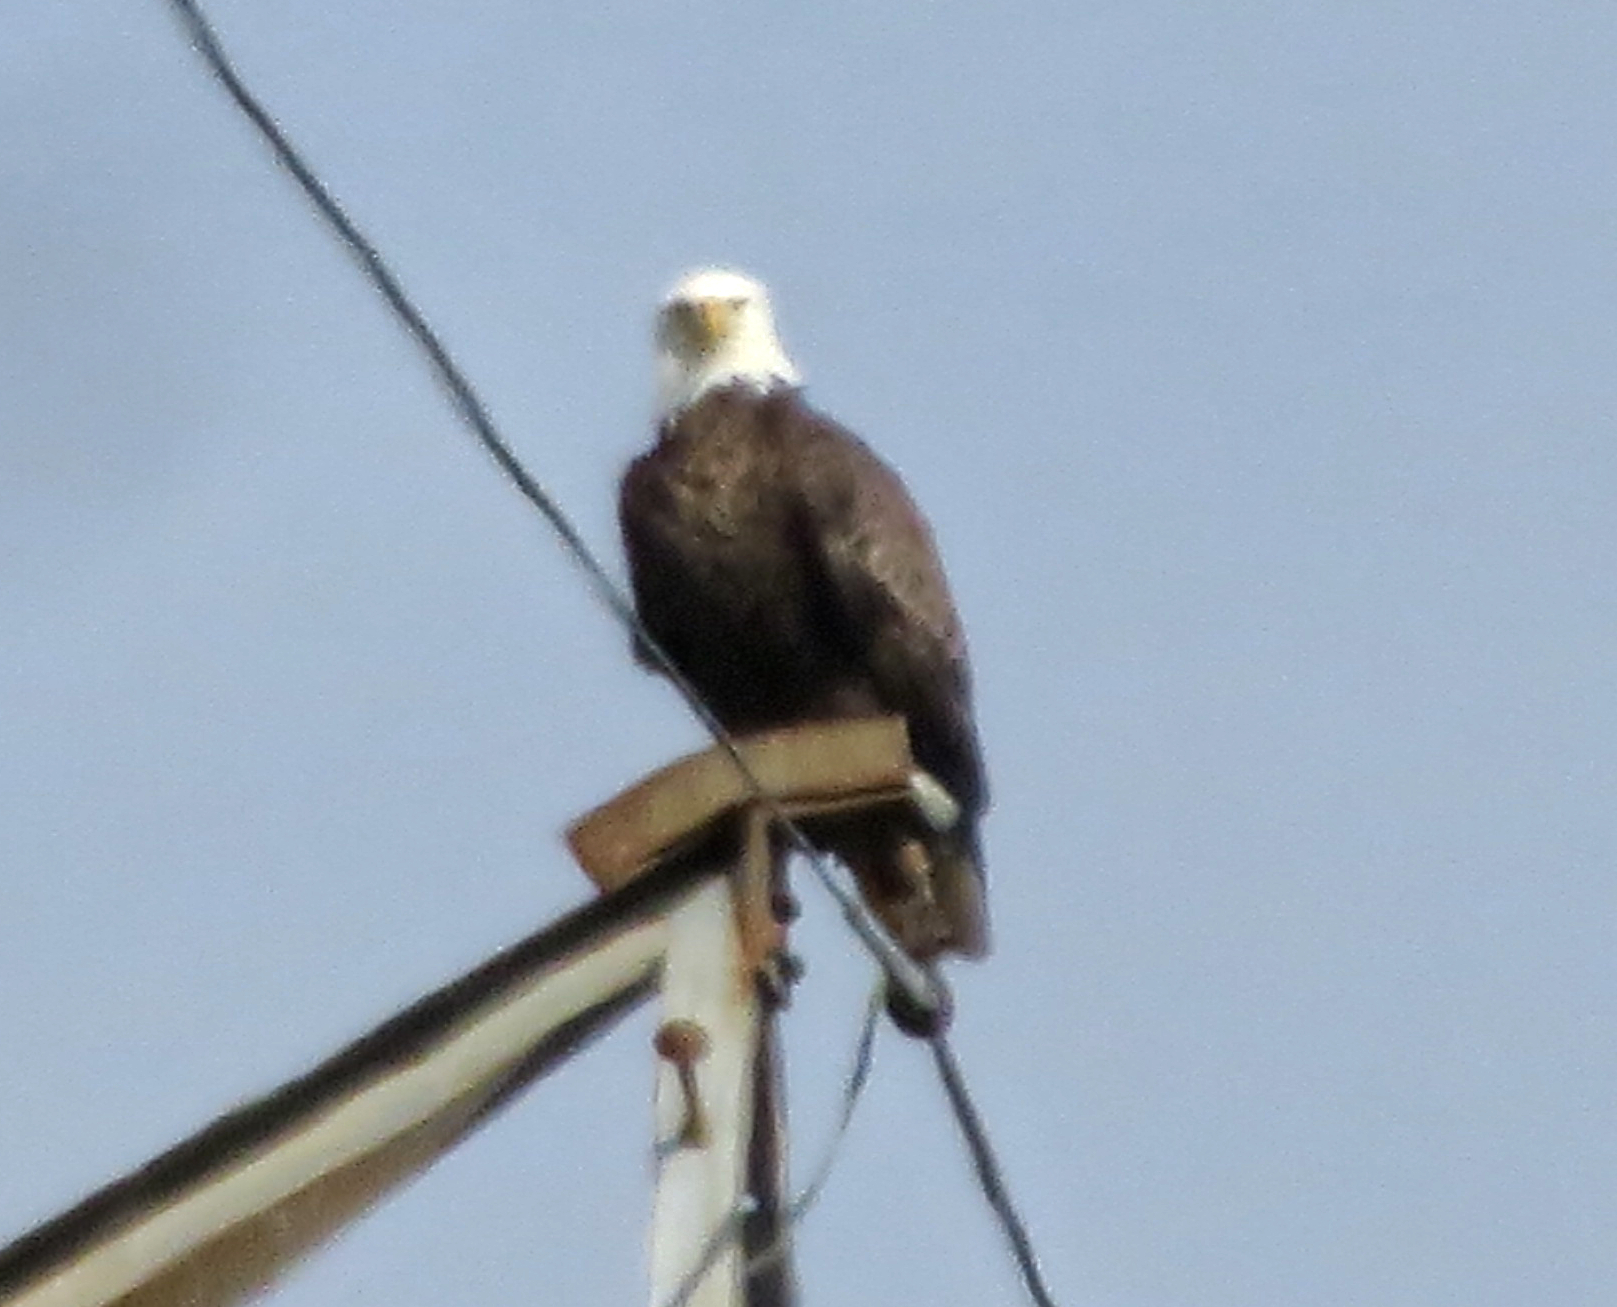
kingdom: Animalia
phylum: Chordata
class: Aves
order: Accipitriformes
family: Accipitridae
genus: Haliaeetus
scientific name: Haliaeetus leucocephalus
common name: Bald eagle
